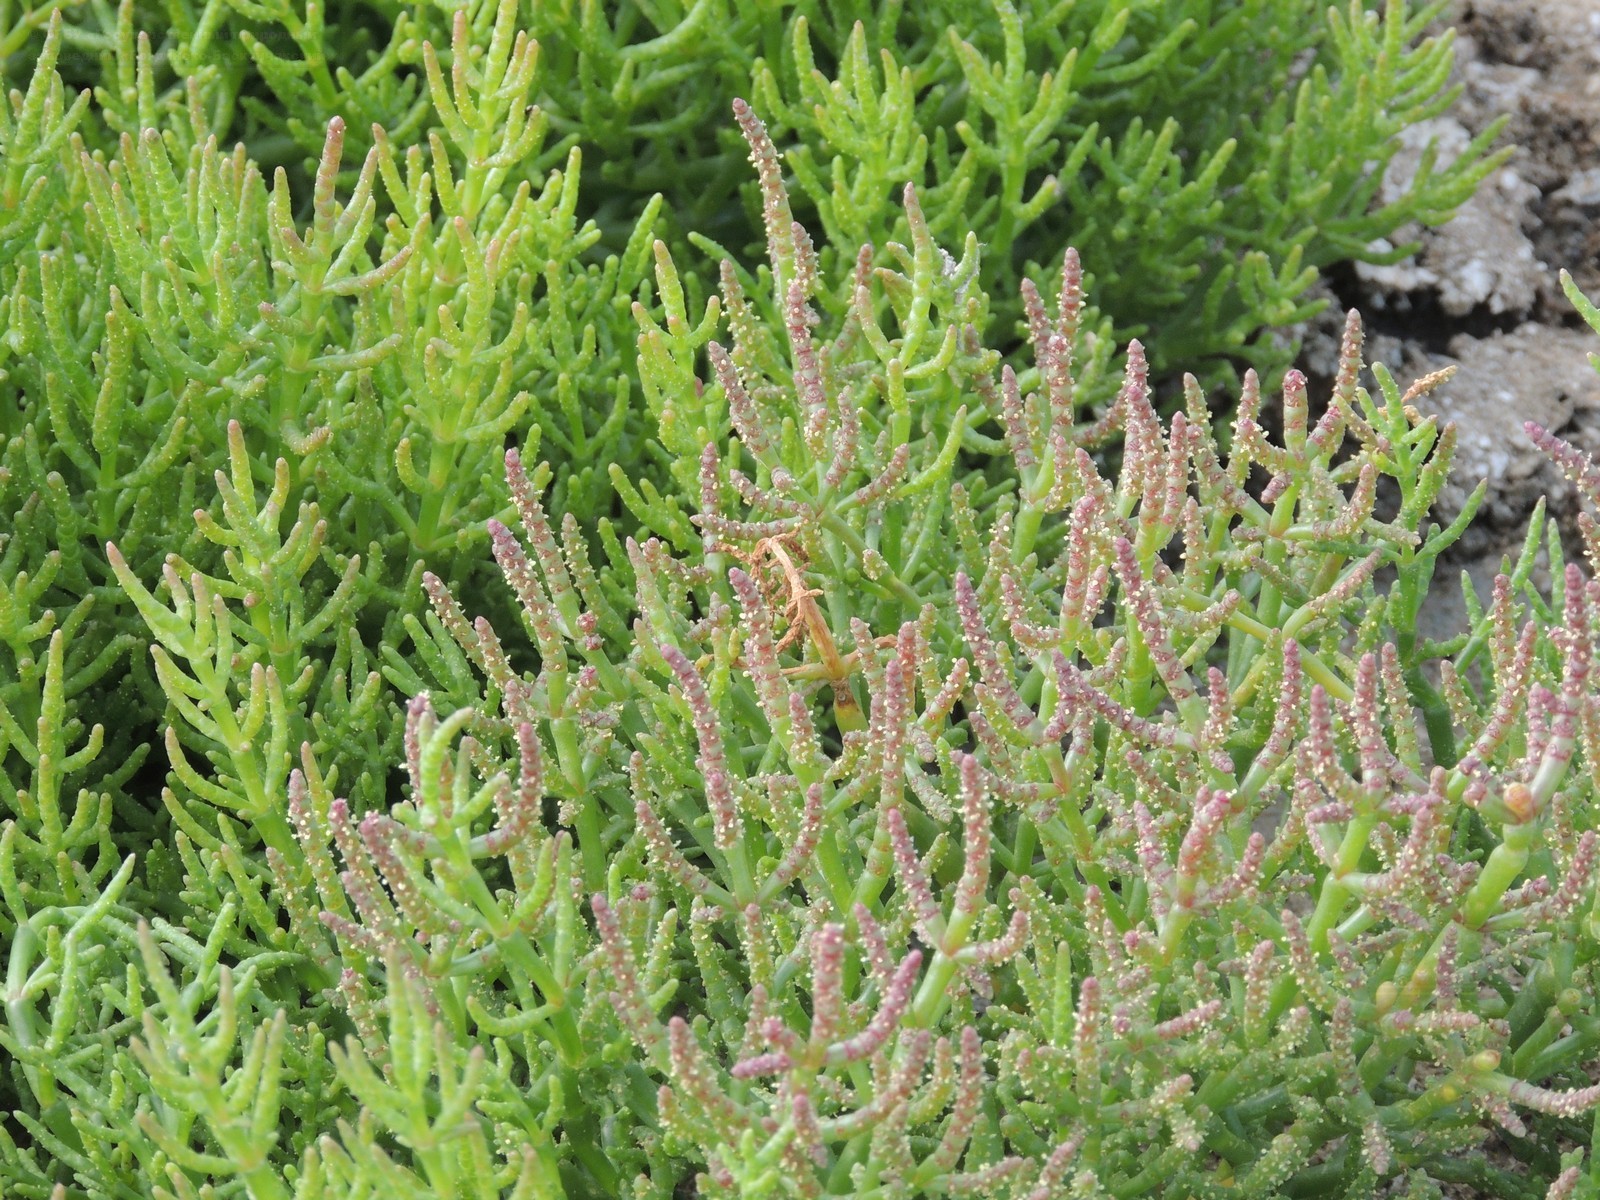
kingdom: Plantae
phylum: Tracheophyta
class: Magnoliopsida
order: Caryophyllales
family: Amaranthaceae
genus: Salicornia
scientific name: Salicornia perennans
